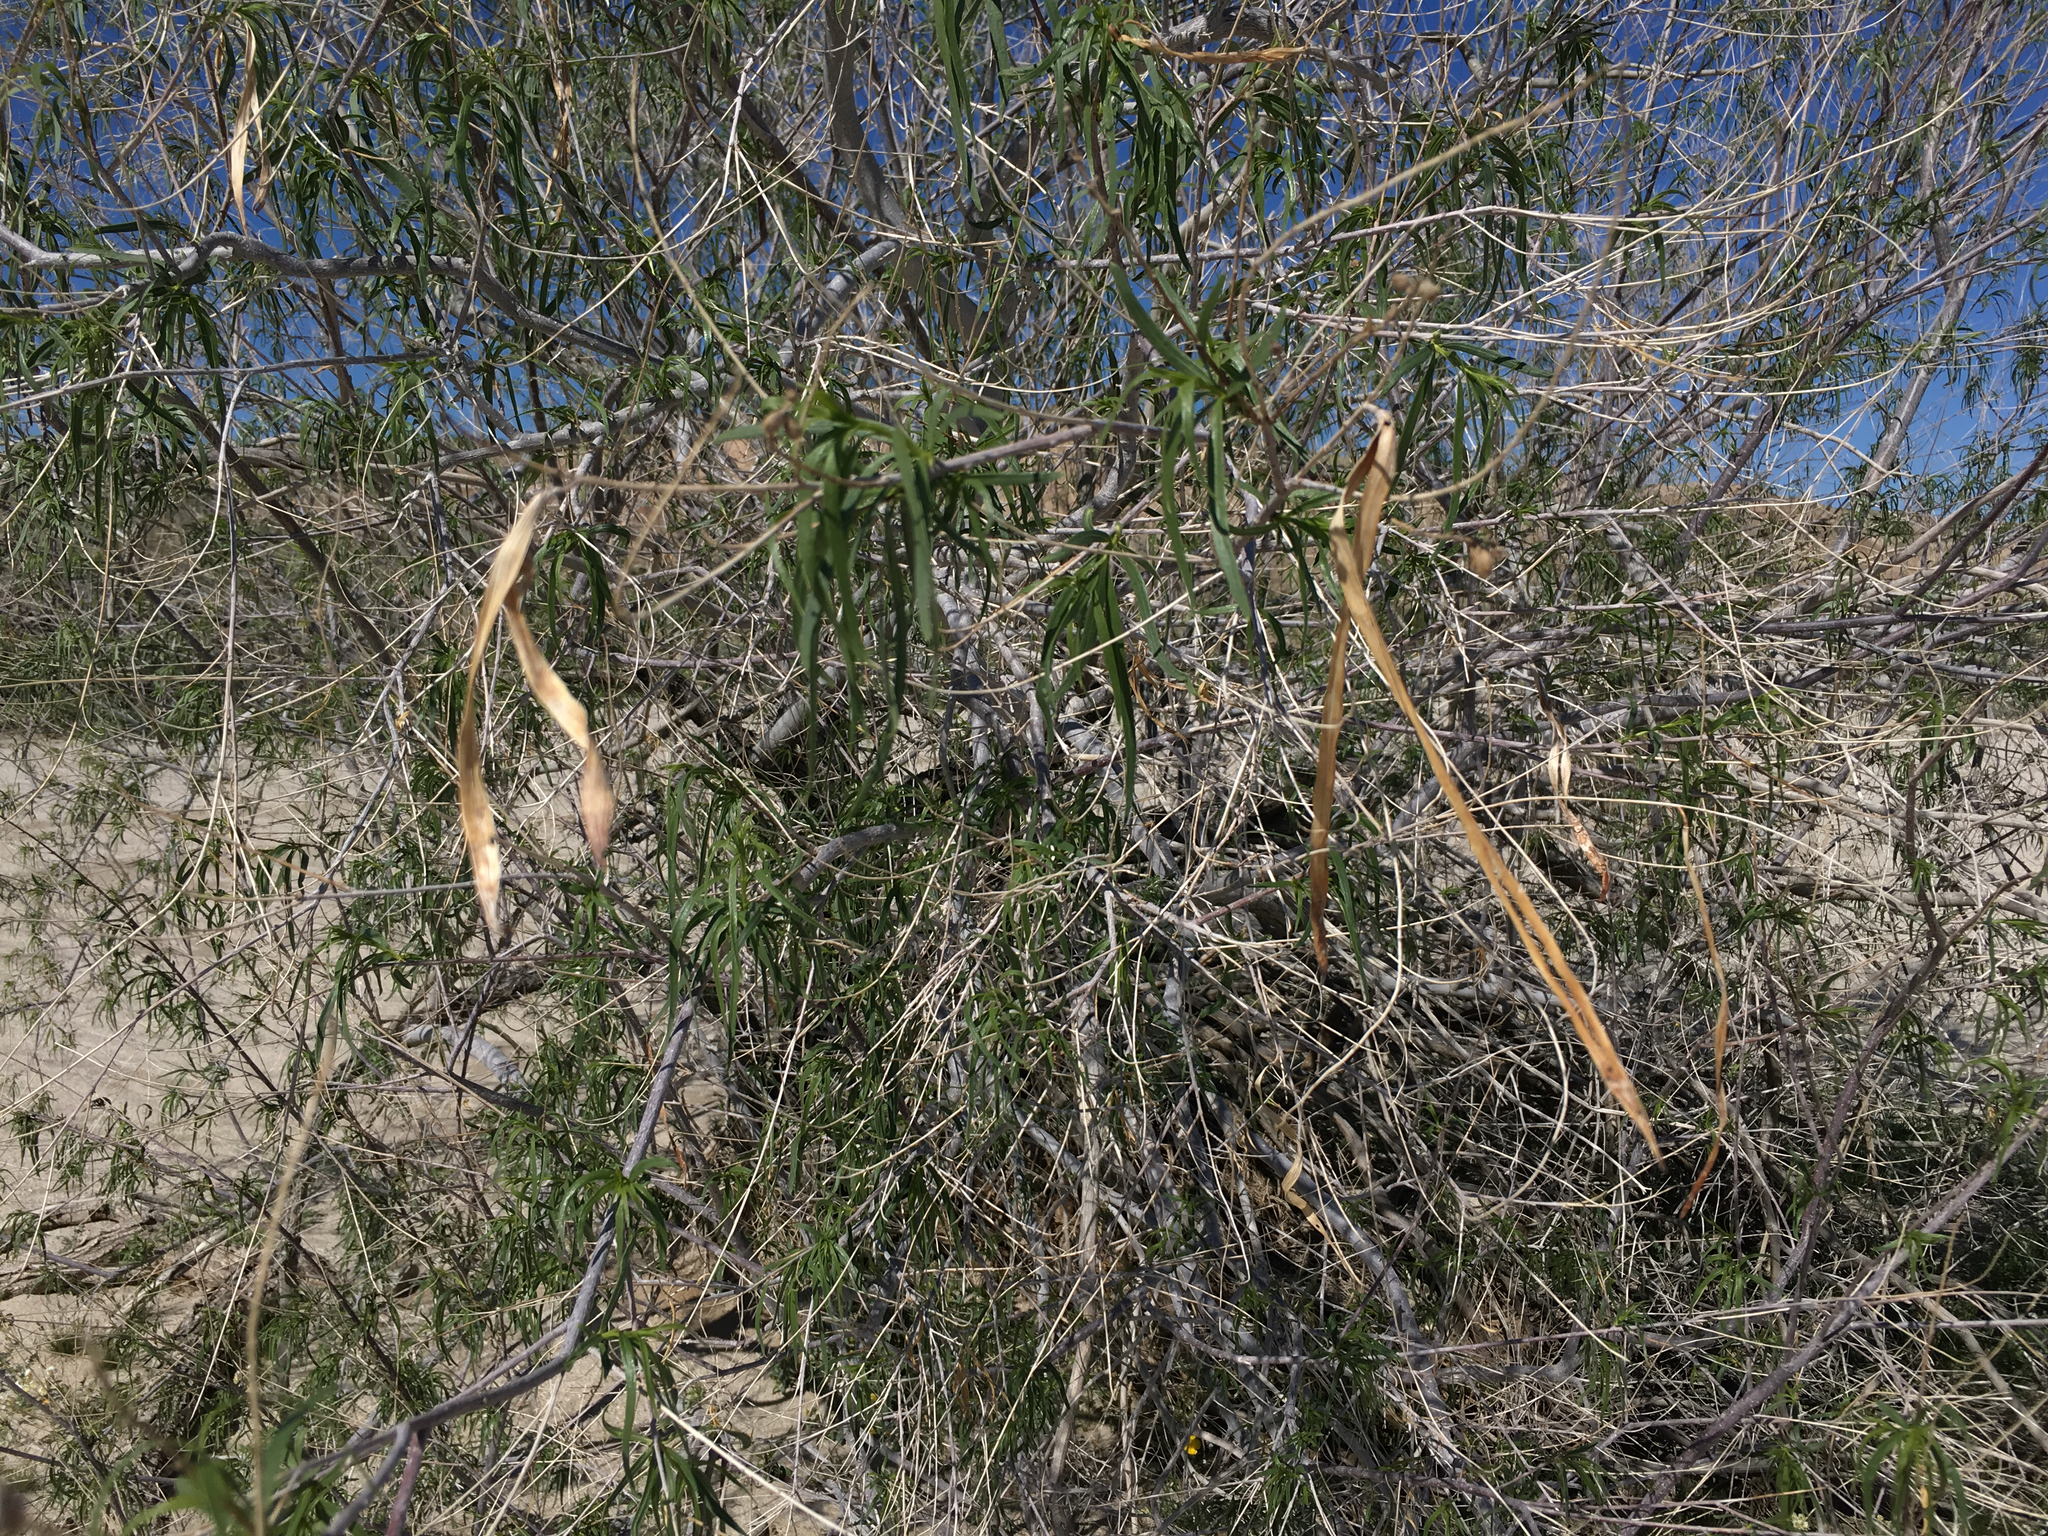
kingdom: Plantae
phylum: Tracheophyta
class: Magnoliopsida
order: Lamiales
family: Bignoniaceae
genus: Chilopsis
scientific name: Chilopsis linearis
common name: Desert-willow
